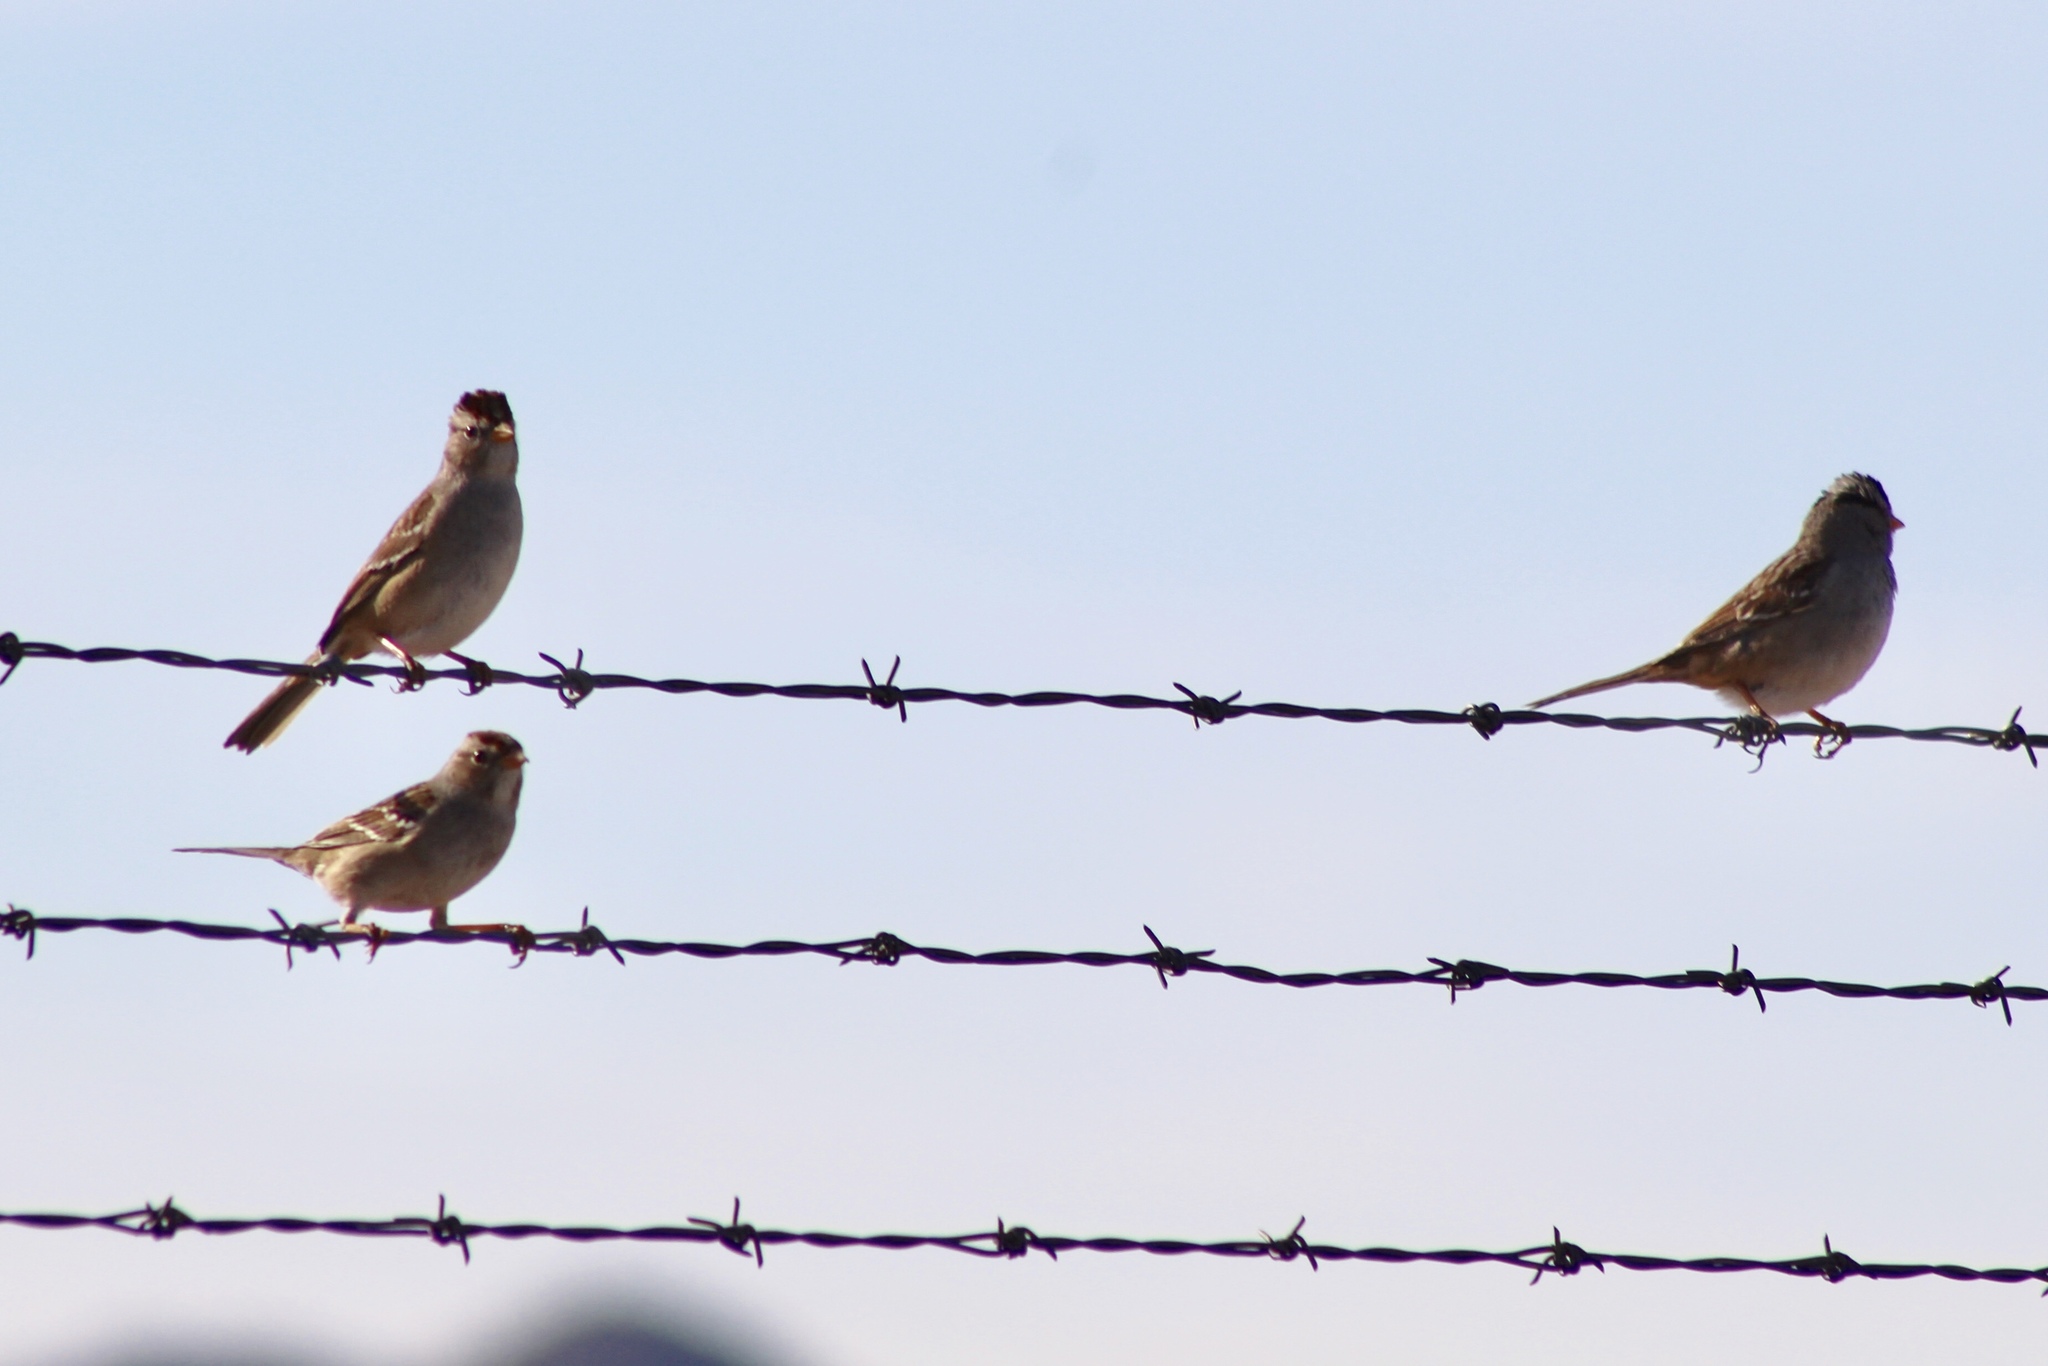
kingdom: Animalia
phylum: Chordata
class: Aves
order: Passeriformes
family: Passerellidae
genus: Zonotrichia
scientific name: Zonotrichia leucophrys
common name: White-crowned sparrow
